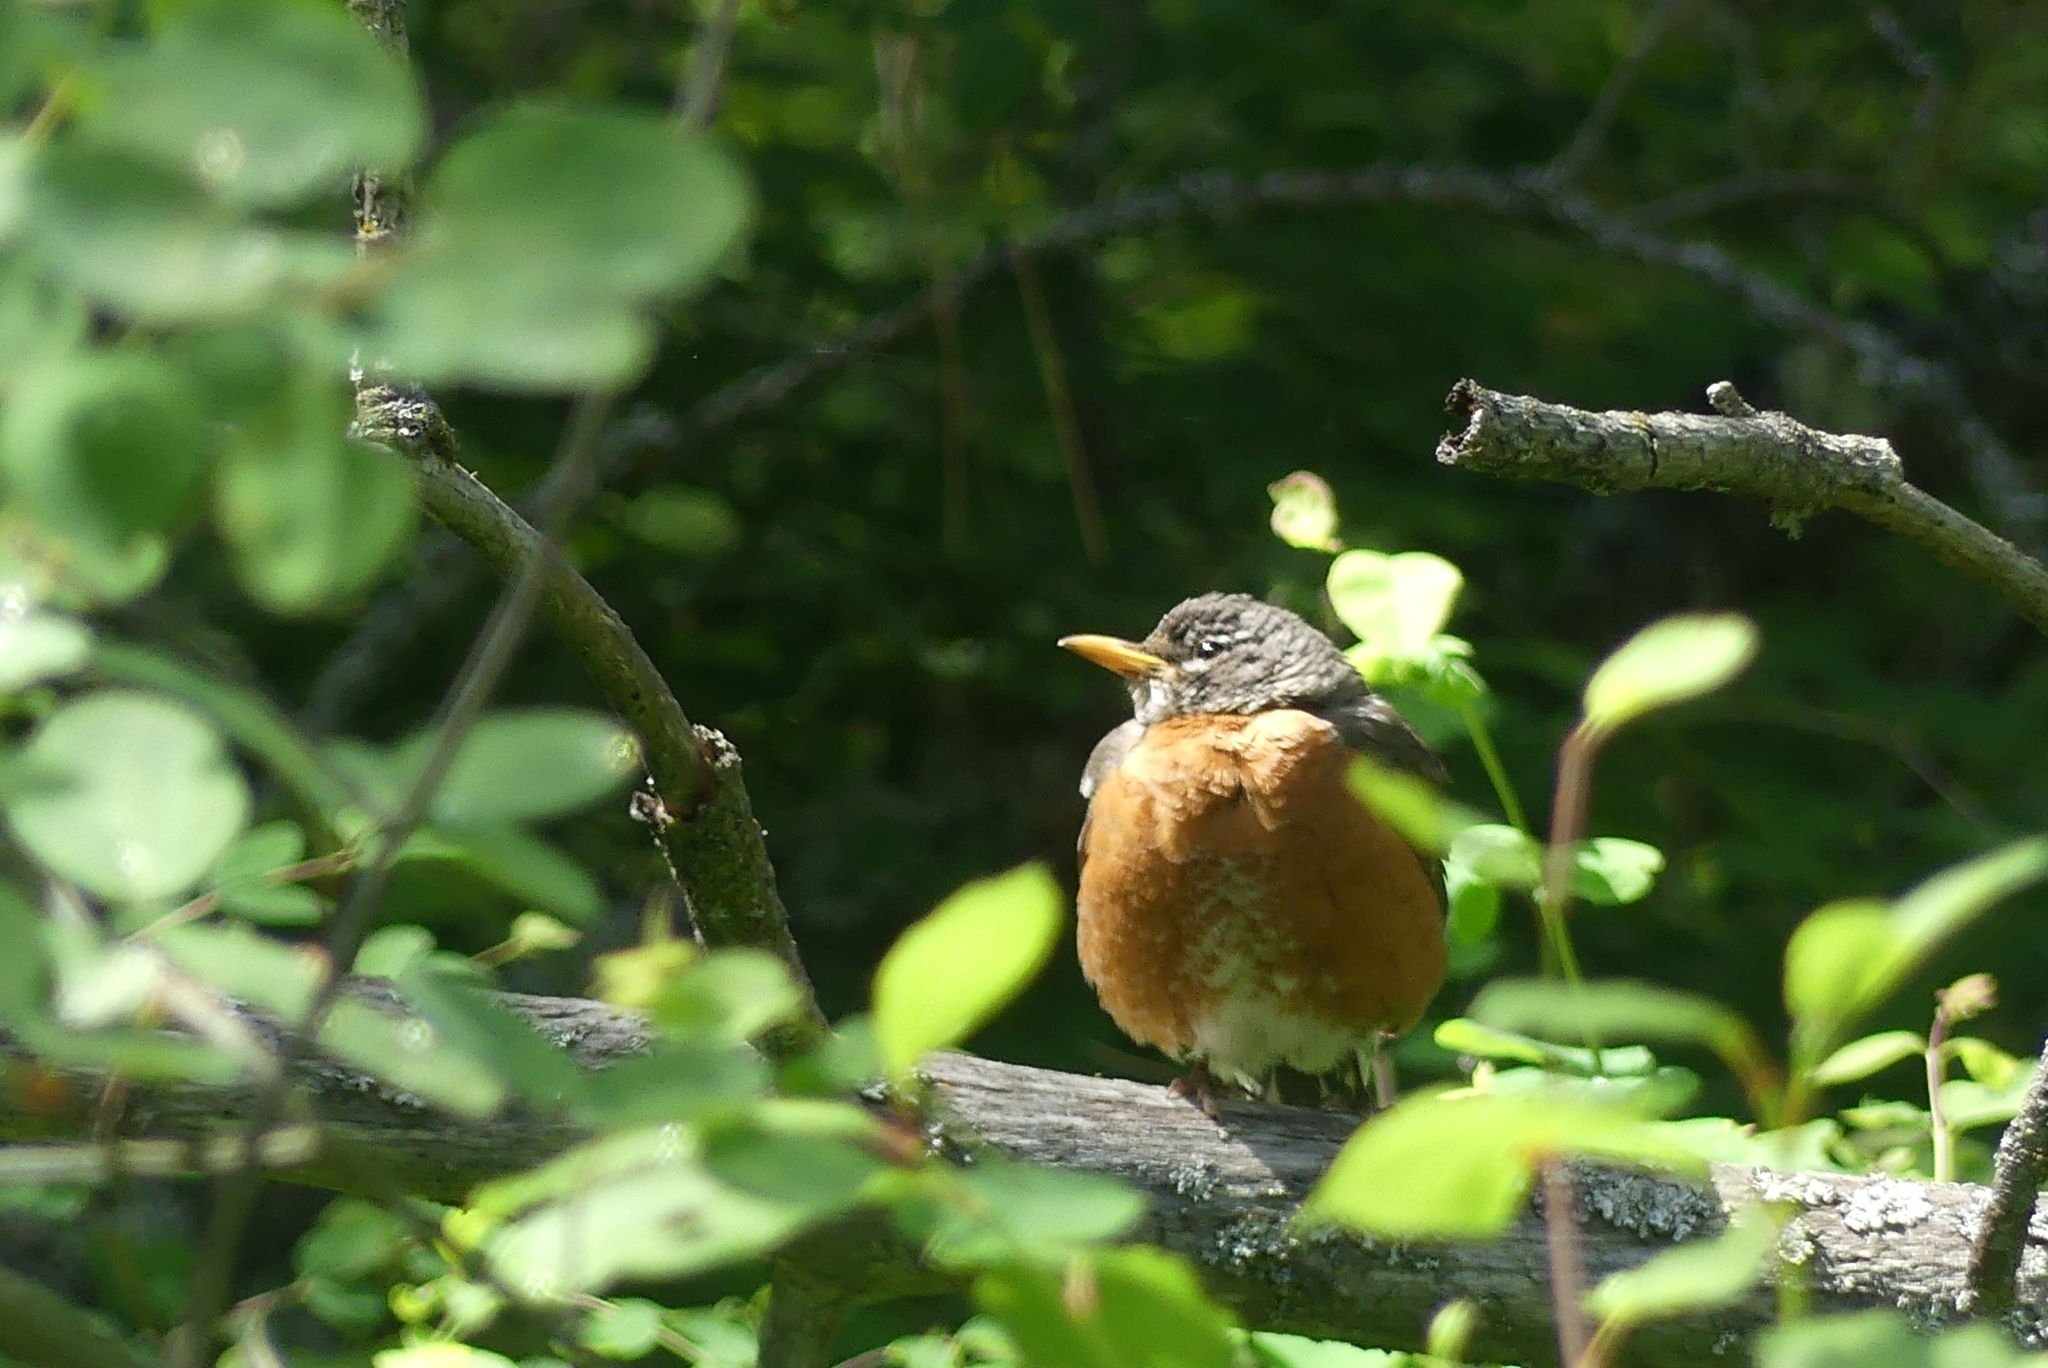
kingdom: Animalia
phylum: Chordata
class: Aves
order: Passeriformes
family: Turdidae
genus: Turdus
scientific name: Turdus migratorius
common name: American robin
